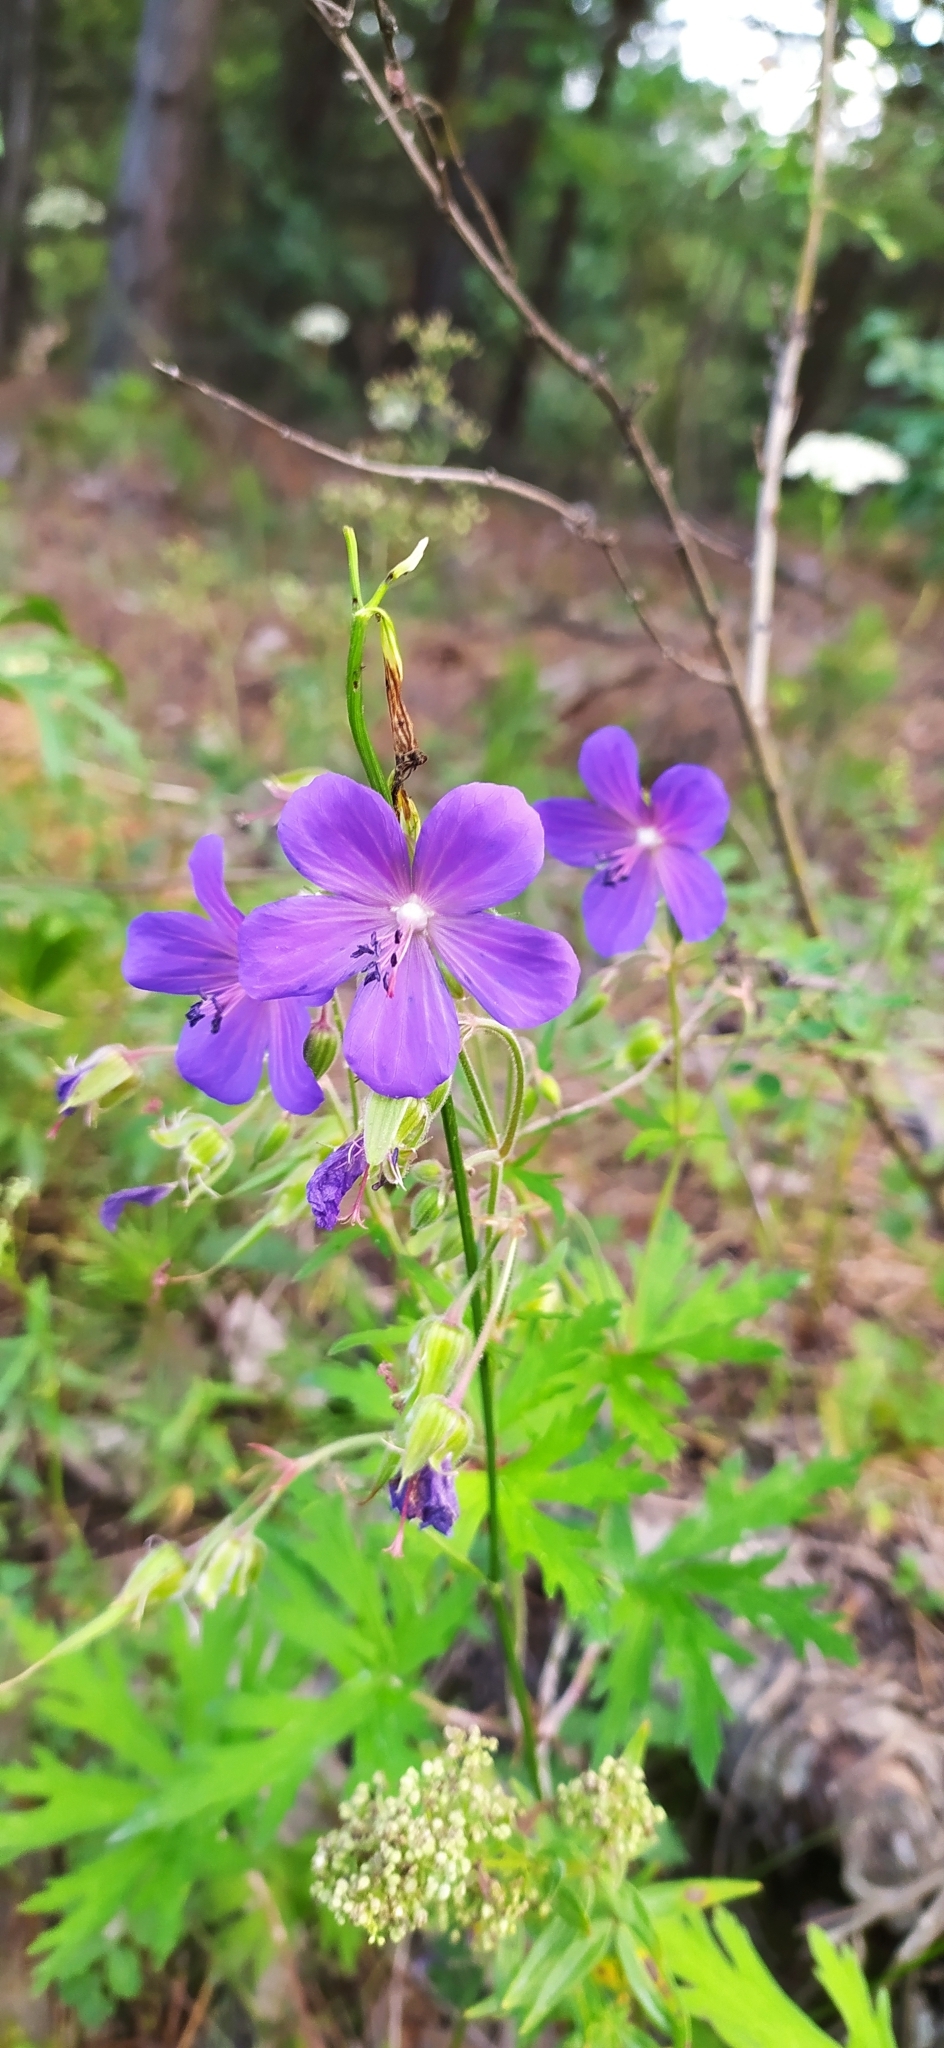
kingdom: Plantae
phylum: Tracheophyta
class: Magnoliopsida
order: Geraniales
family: Geraniaceae
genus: Geranium
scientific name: Geranium pratense
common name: Meadow crane's-bill
